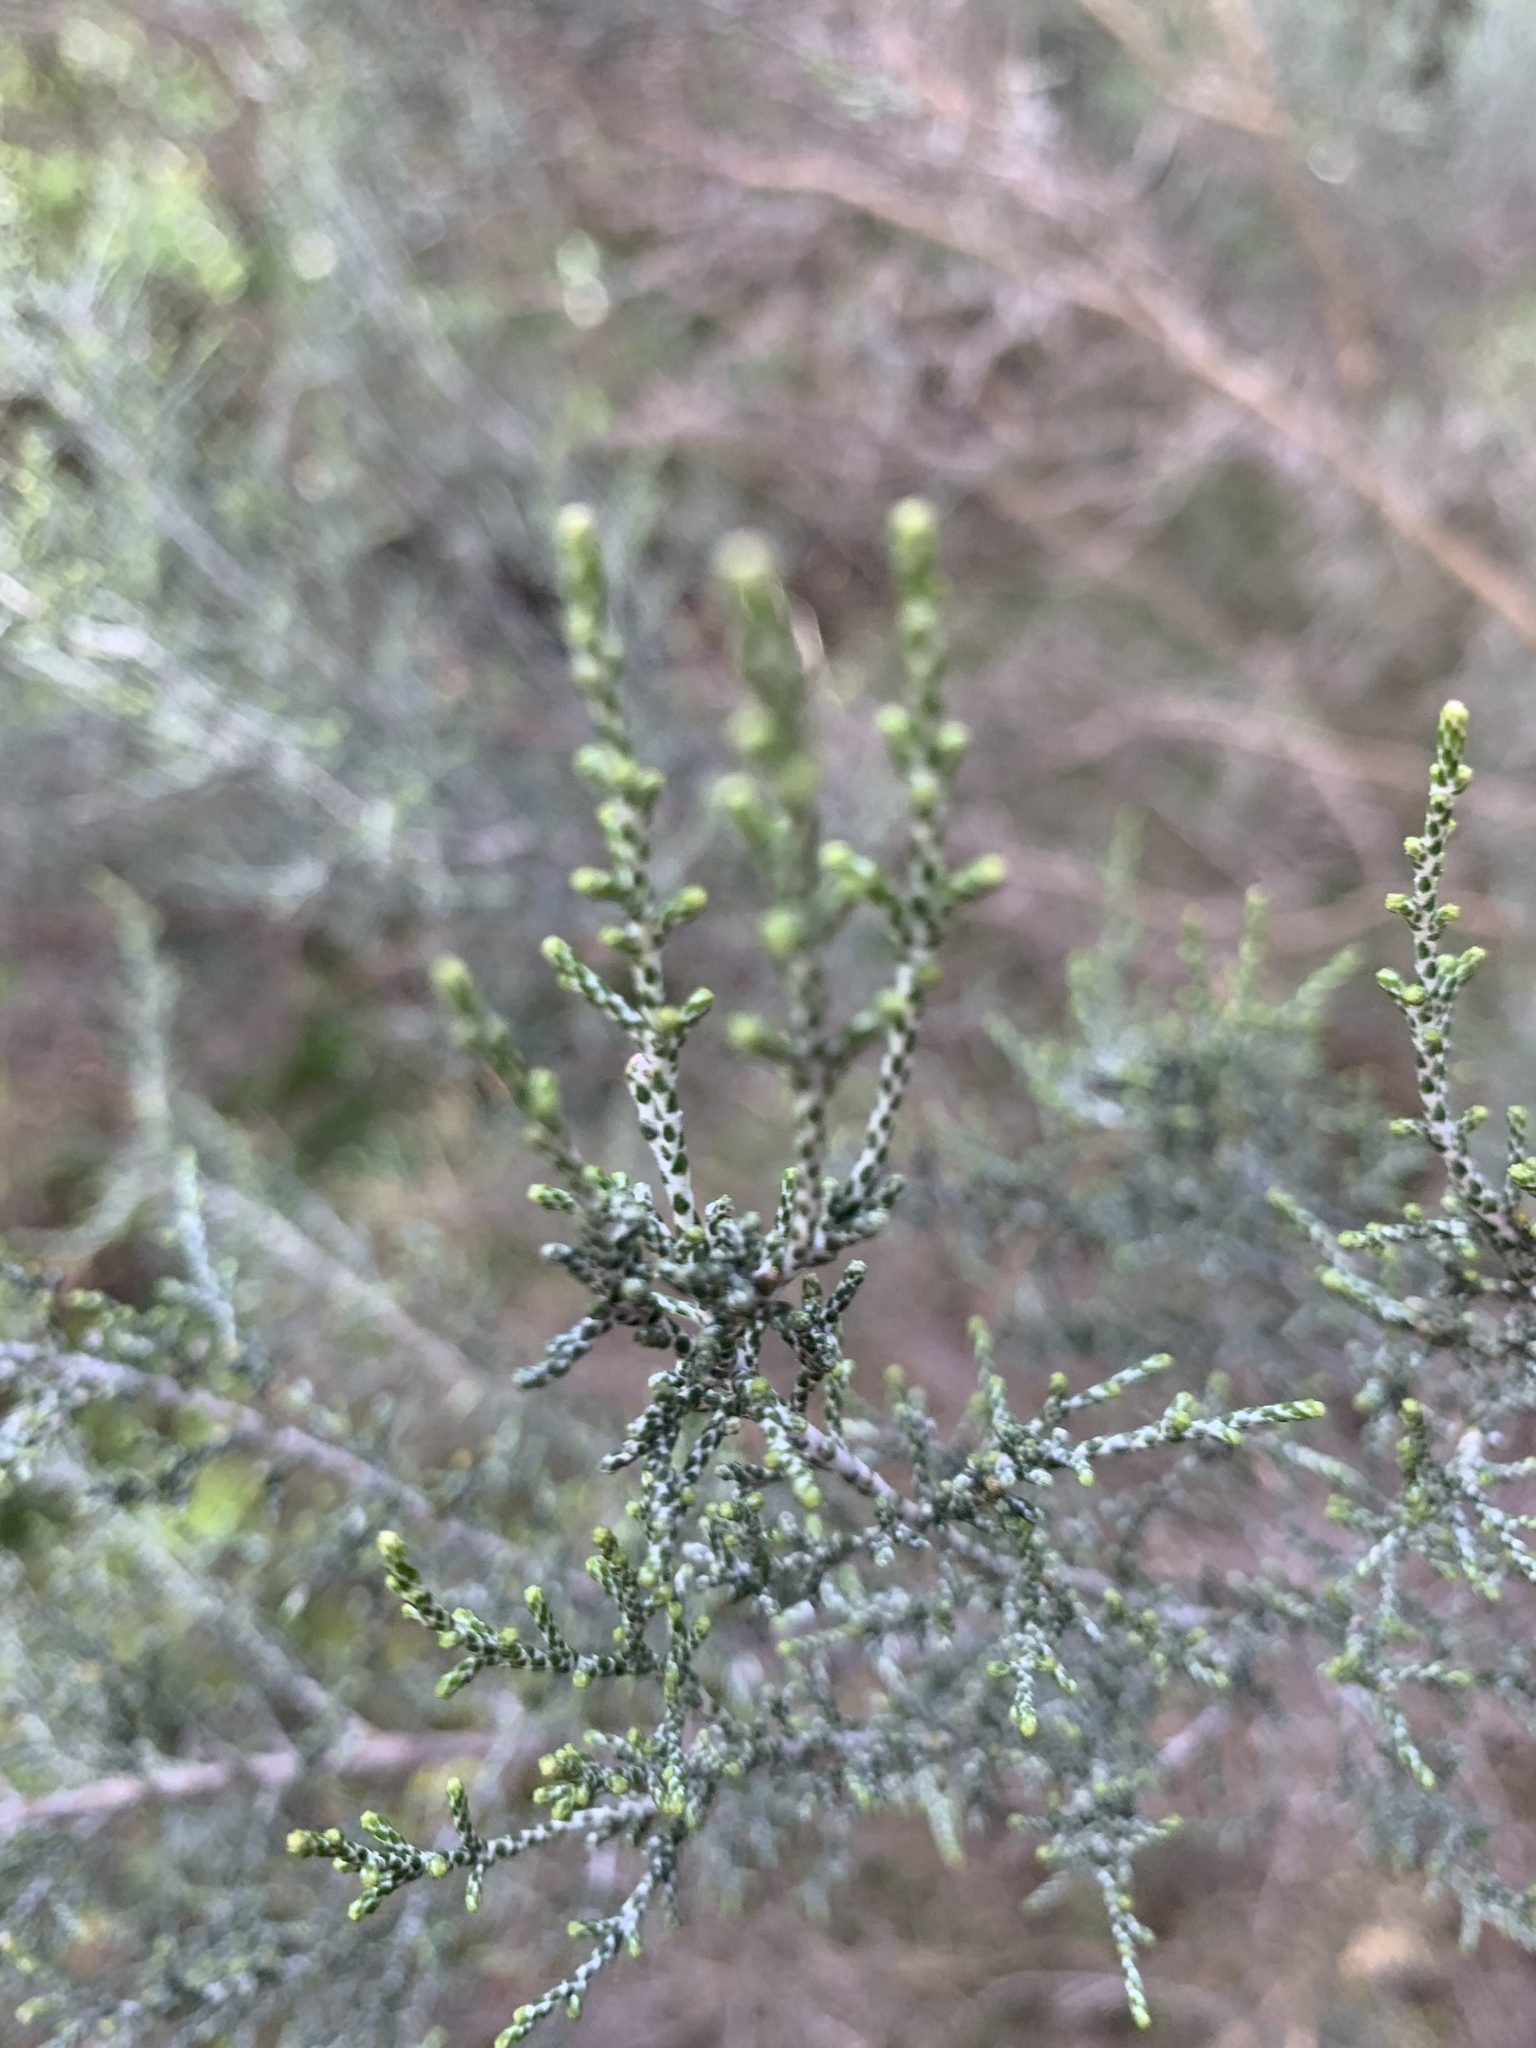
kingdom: Plantae
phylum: Tracheophyta
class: Magnoliopsida
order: Asterales
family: Asteraceae
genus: Dicerothamnus
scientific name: Dicerothamnus rhinocerotis
